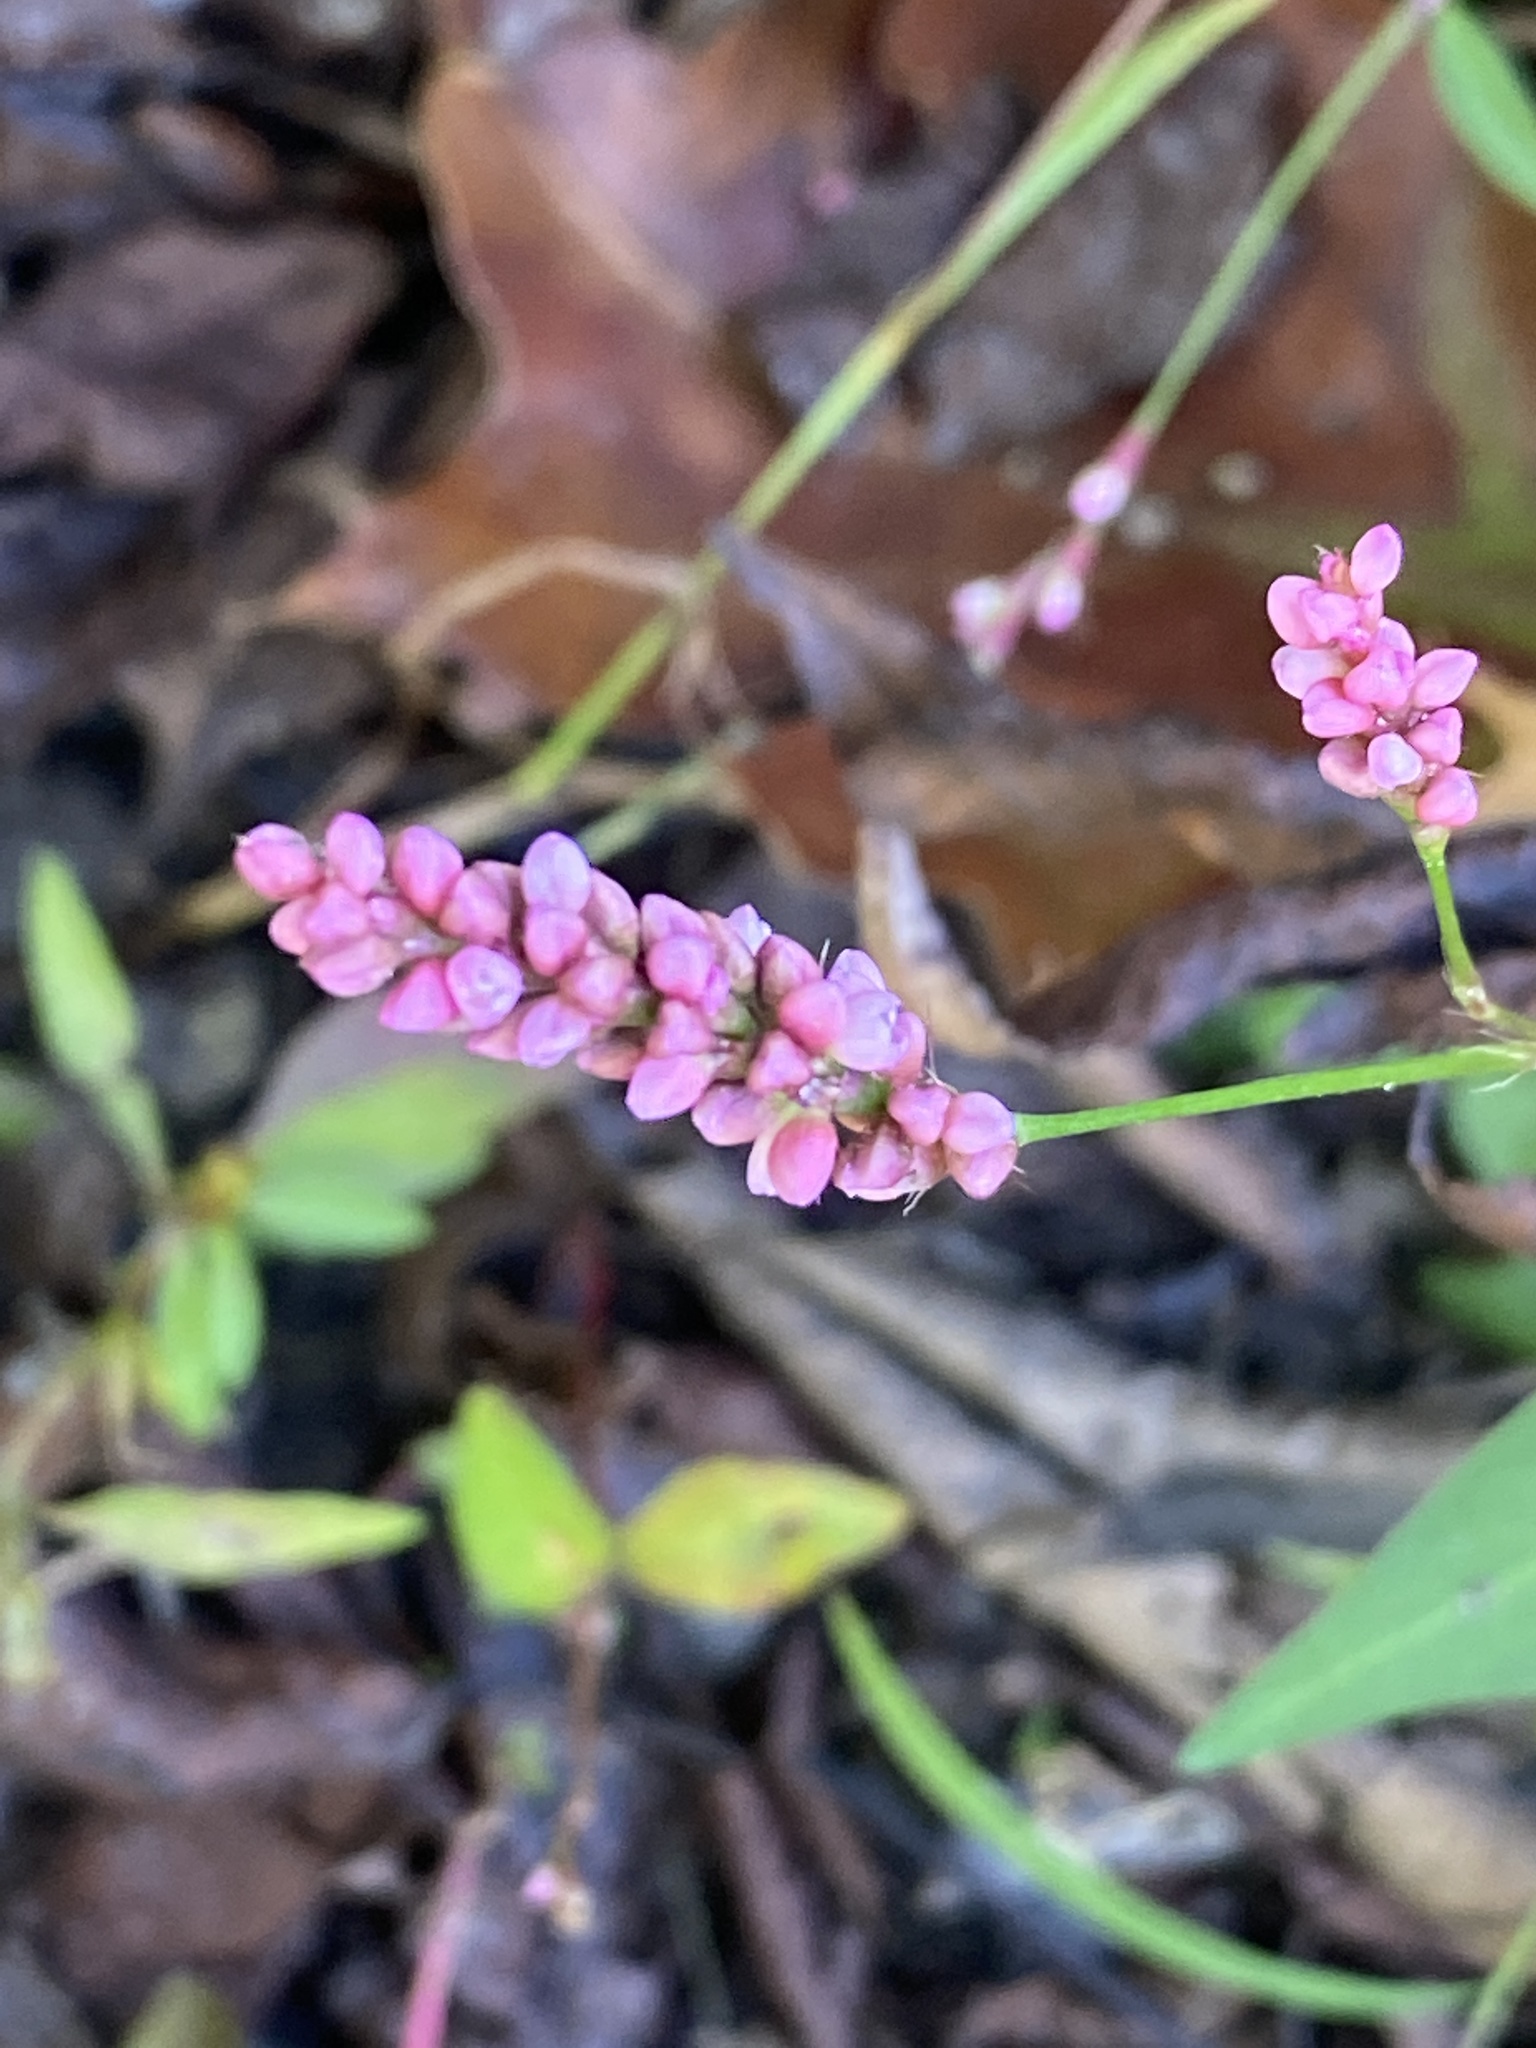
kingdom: Plantae
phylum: Tracheophyta
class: Magnoliopsida
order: Caryophyllales
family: Polygonaceae
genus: Persicaria
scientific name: Persicaria longiseta
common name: Bristly lady's-thumb
